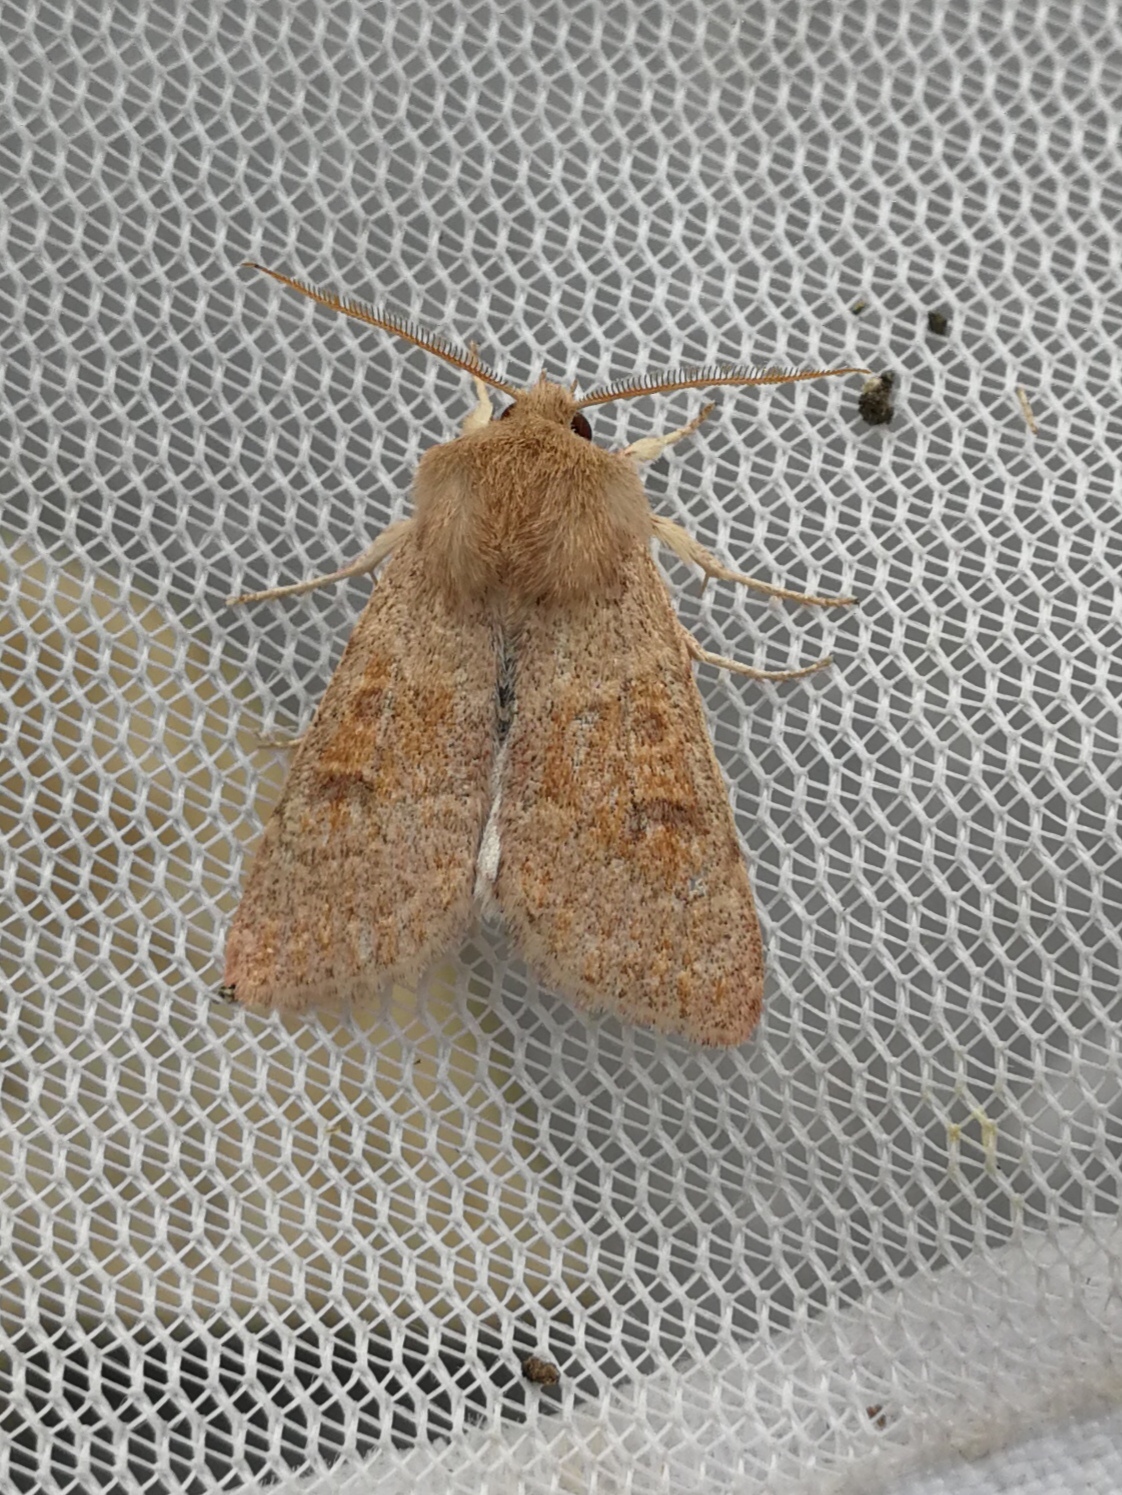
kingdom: Animalia
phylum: Arthropoda
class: Insecta
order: Lepidoptera
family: Noctuidae
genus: Orthosia
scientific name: Orthosia miniosa
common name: Blossom underwing
